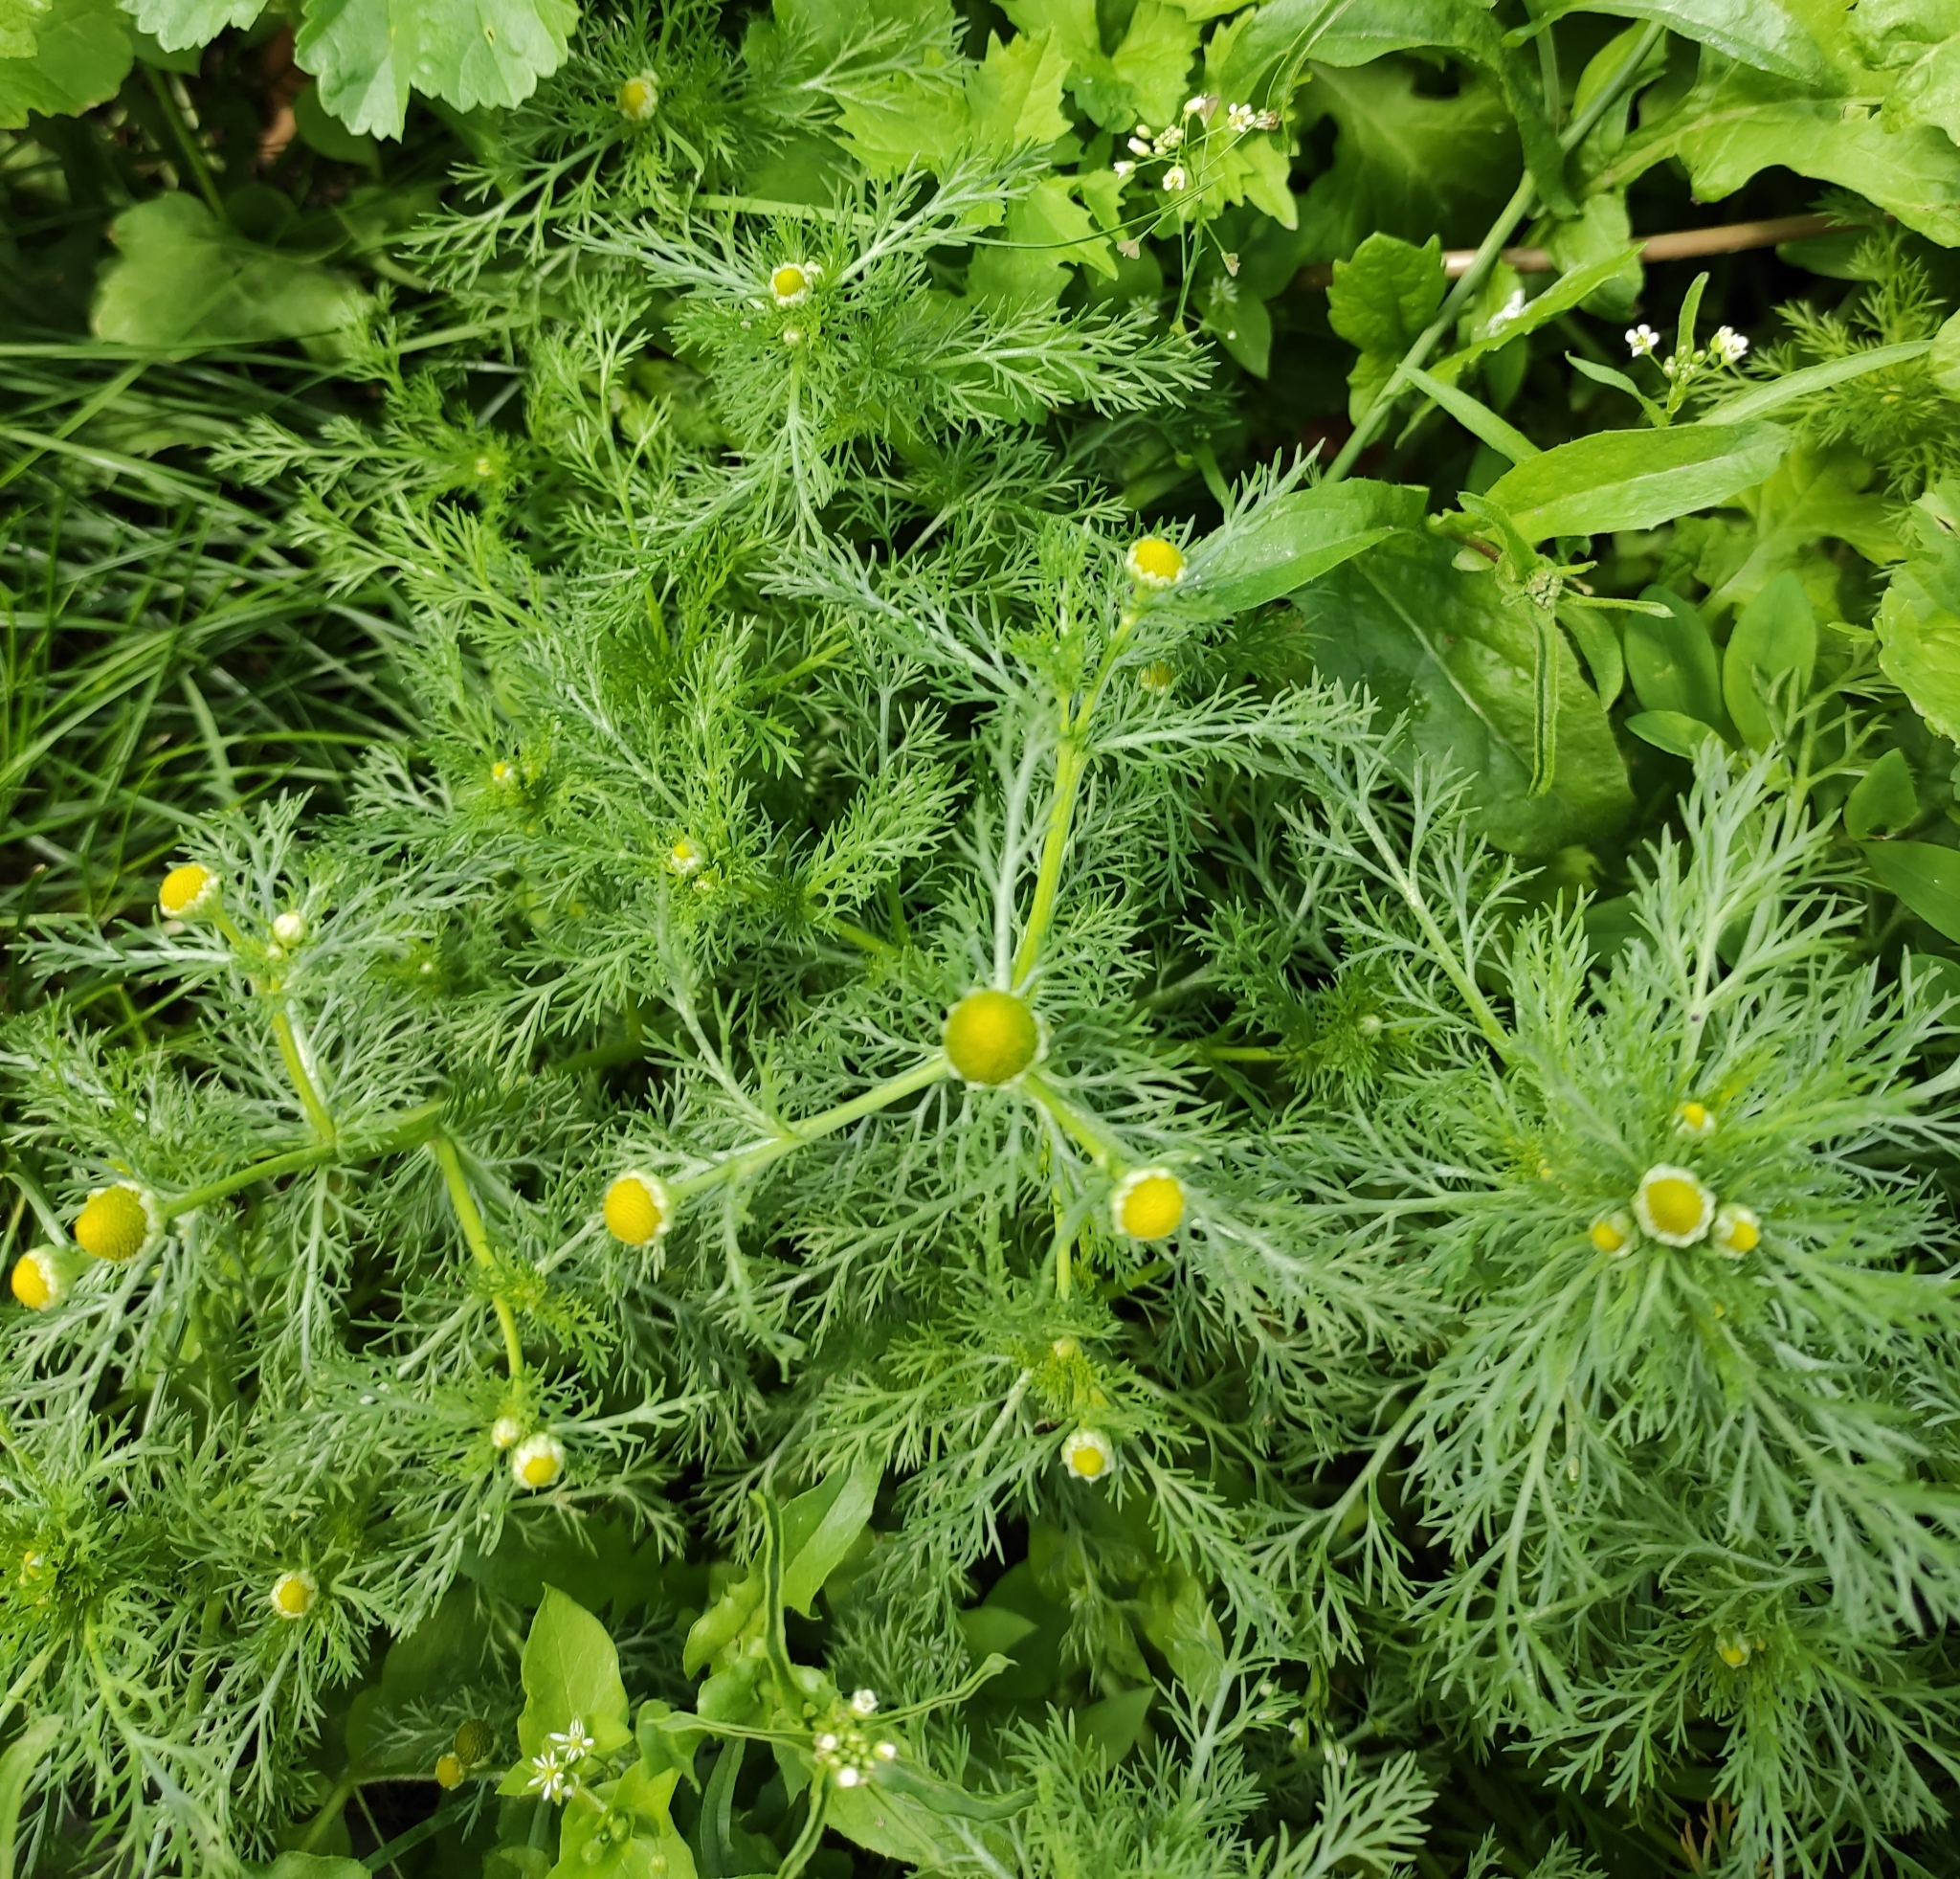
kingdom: Plantae
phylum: Tracheophyta
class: Magnoliopsida
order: Asterales
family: Asteraceae
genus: Matricaria
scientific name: Matricaria discoidea
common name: Disc mayweed
